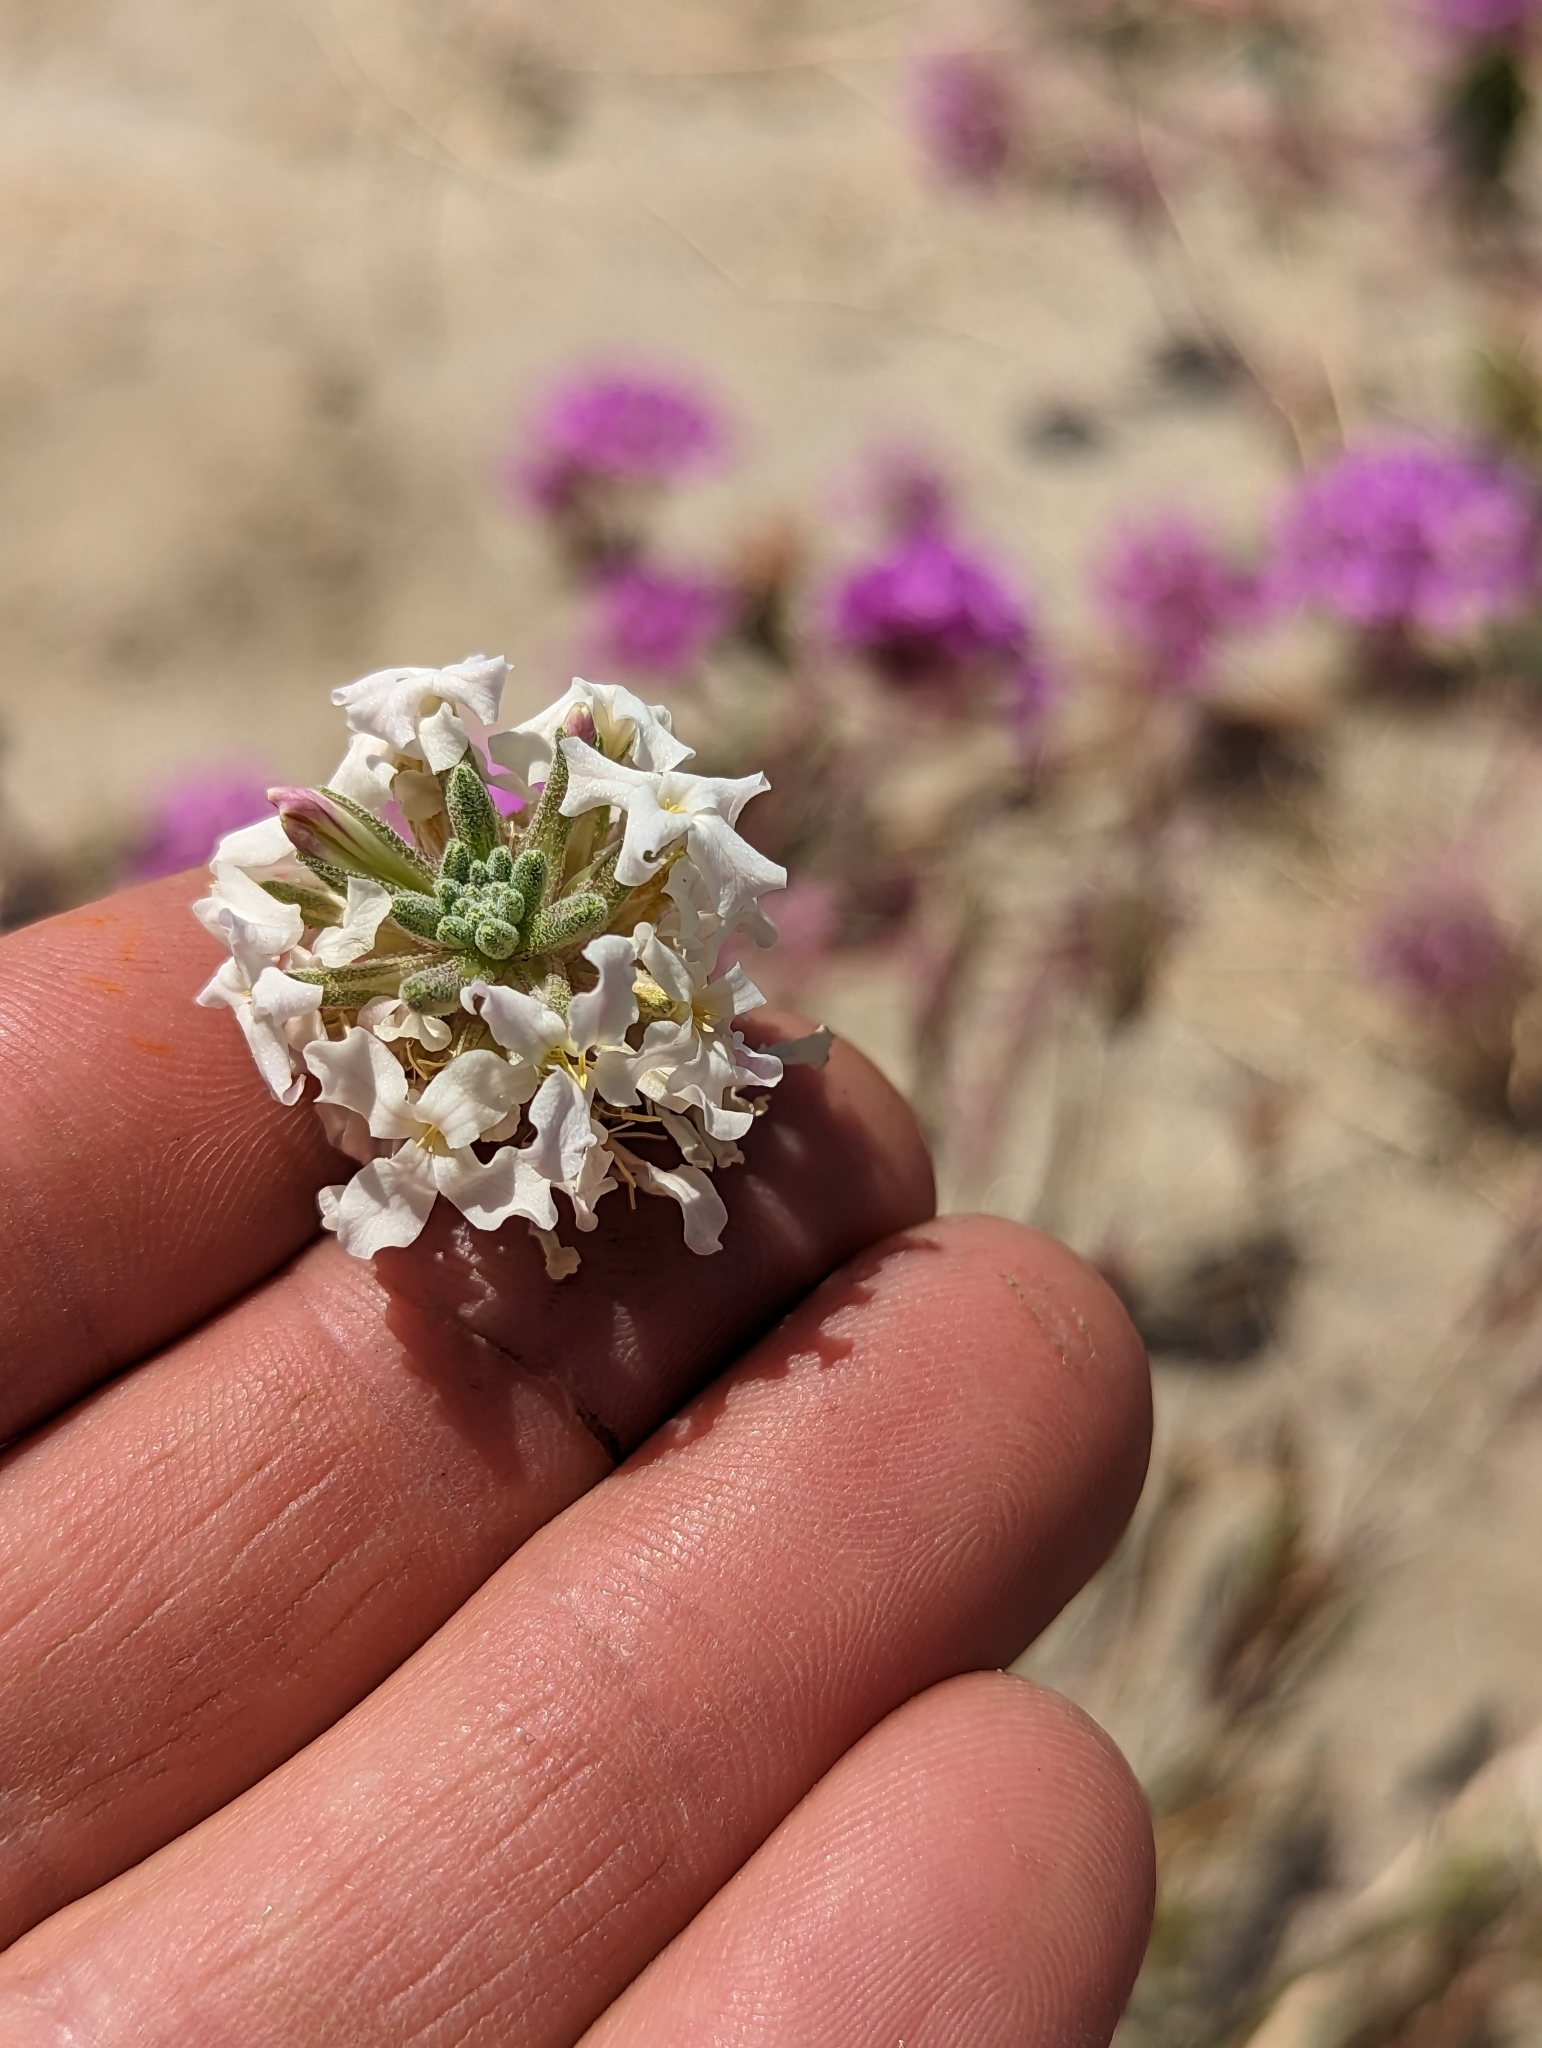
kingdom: Plantae
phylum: Tracheophyta
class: Magnoliopsida
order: Brassicales
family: Brassicaceae
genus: Dithyrea
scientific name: Dithyrea californica
